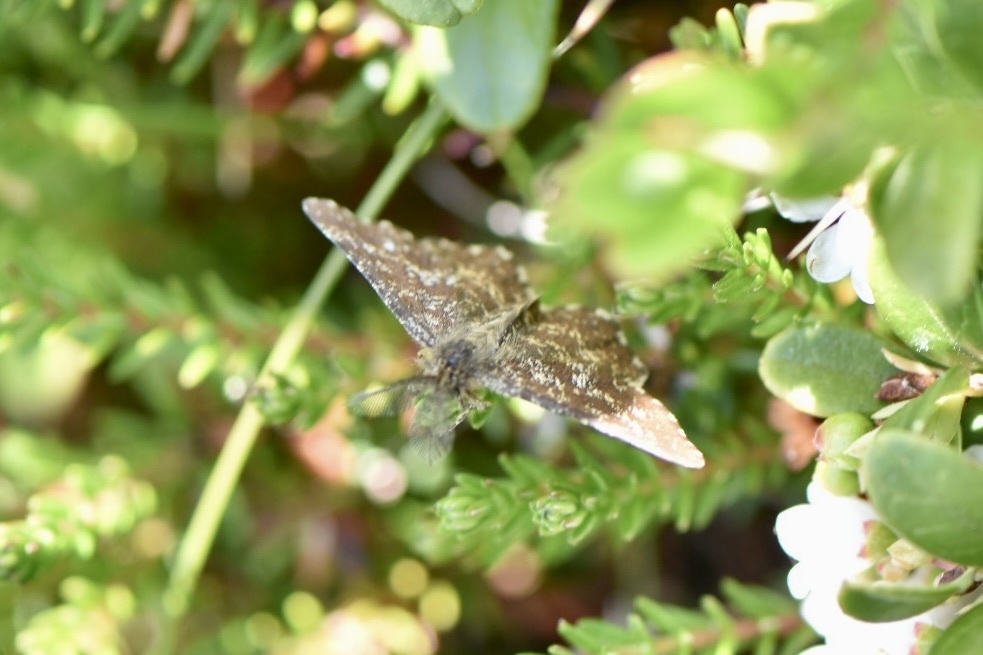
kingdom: Animalia
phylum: Arthropoda
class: Insecta
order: Lepidoptera
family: Geometridae
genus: Ematurga
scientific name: Ematurga atomaria
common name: Common heath
